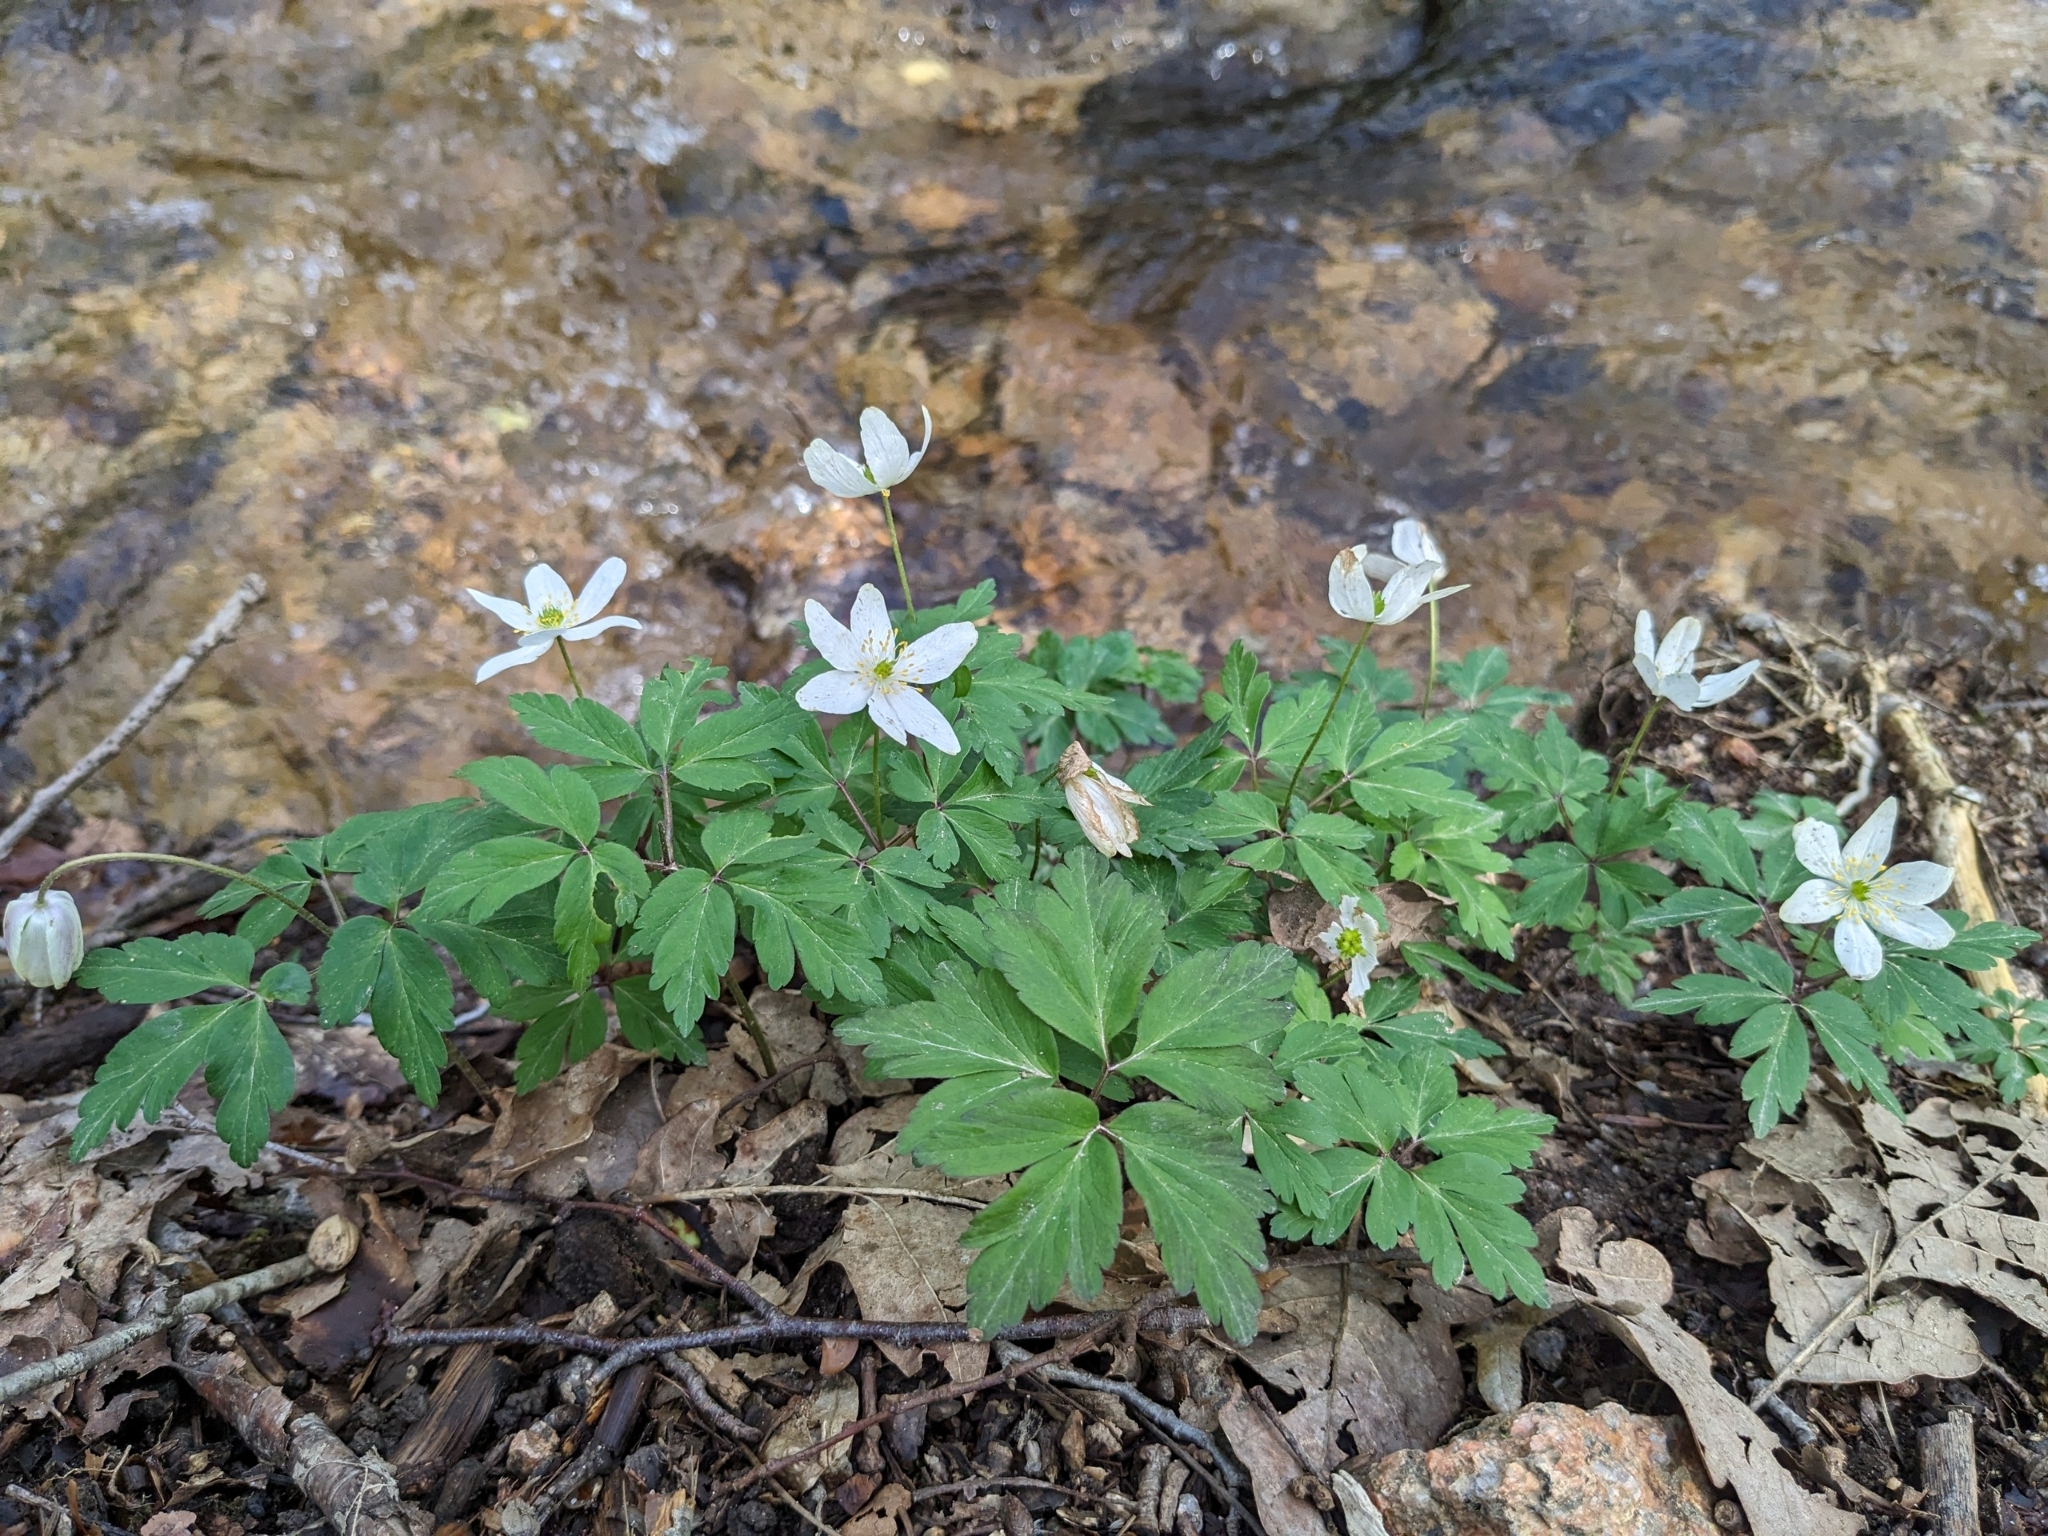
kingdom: Plantae
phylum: Tracheophyta
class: Magnoliopsida
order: Ranunculales
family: Ranunculaceae
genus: Anemone
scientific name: Anemone nemorosa
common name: Wood anemone
